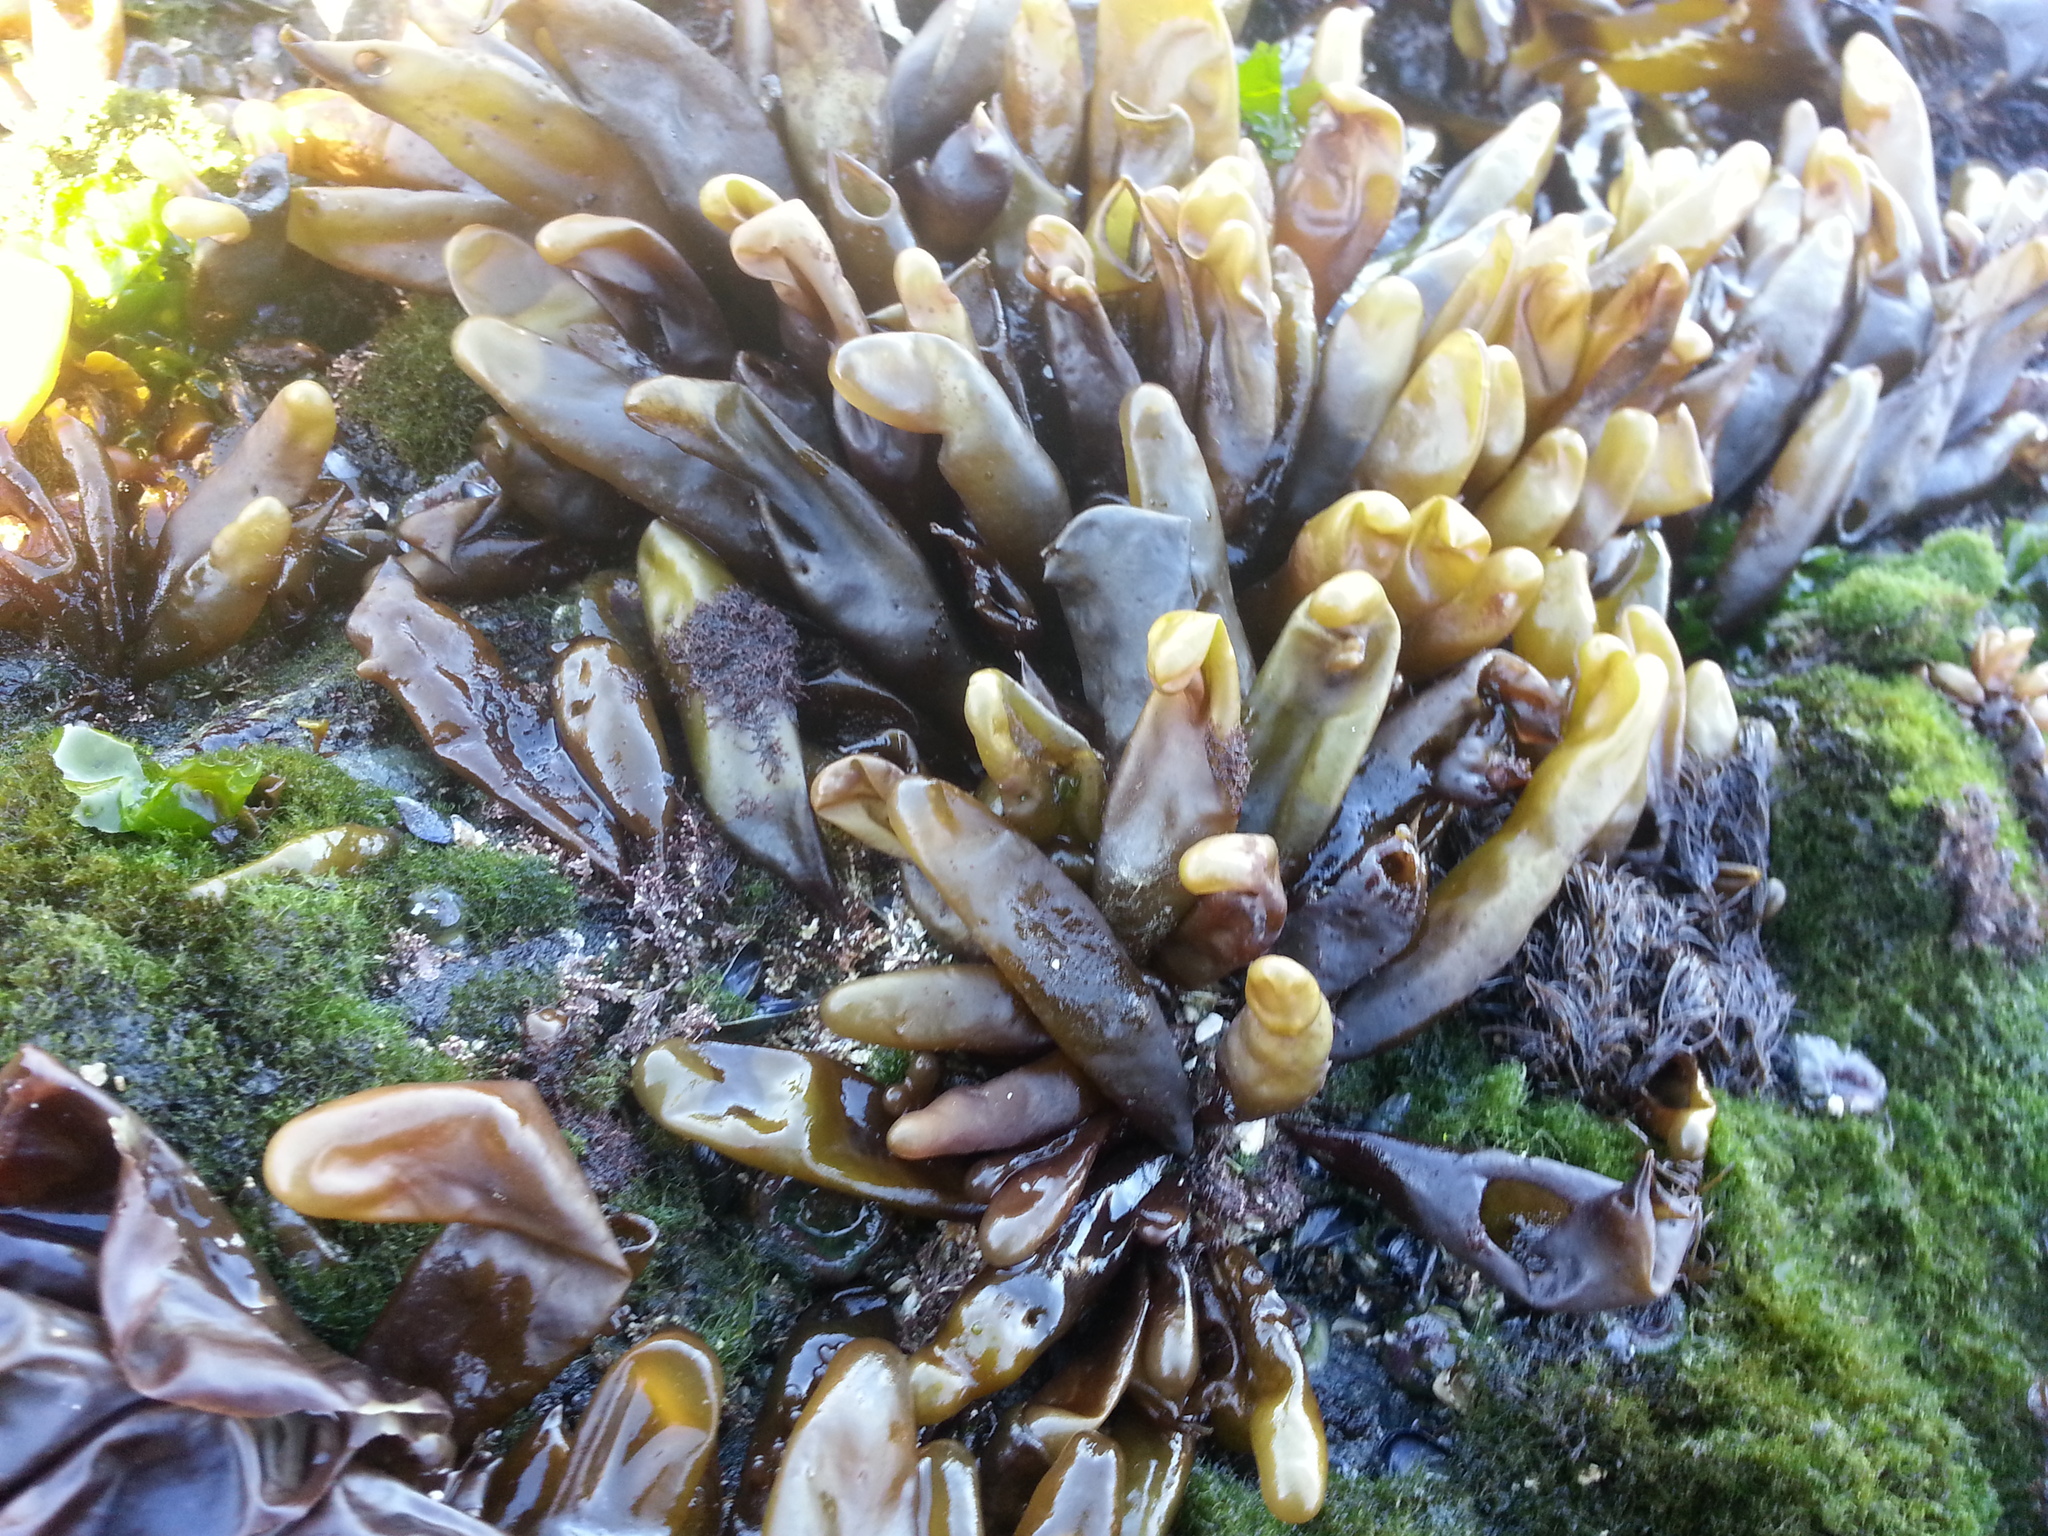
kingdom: Plantae
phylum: Rhodophyta
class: Florideophyceae
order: Palmariales
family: Palmariaceae
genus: Halosaccion
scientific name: Halosaccion glandiforme
